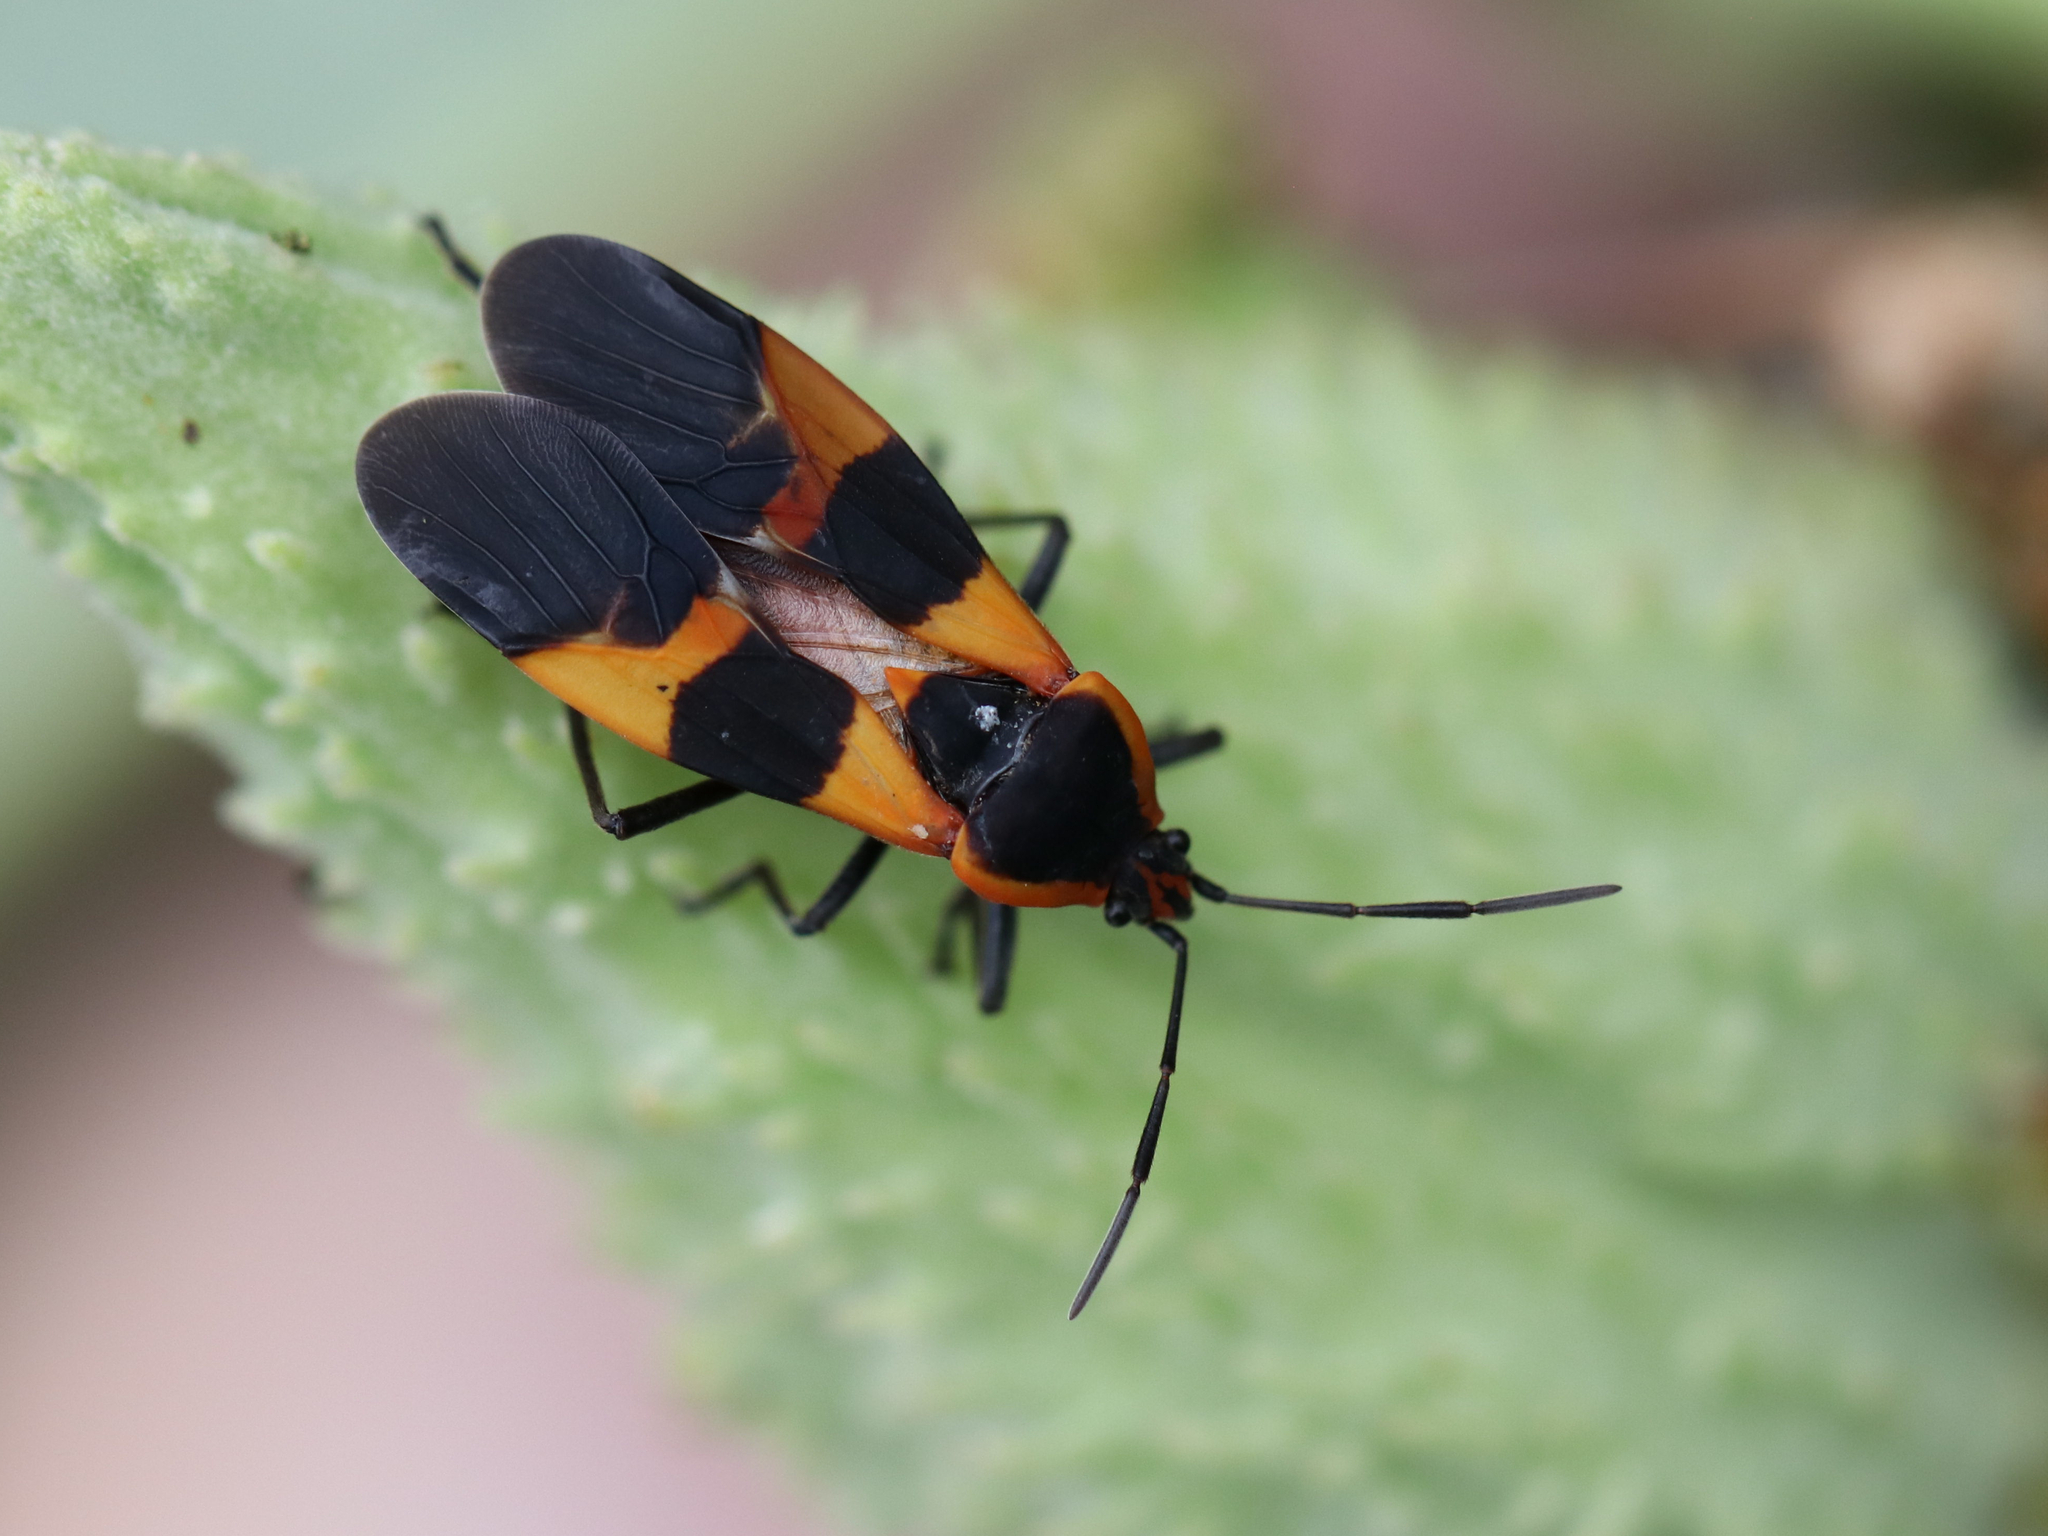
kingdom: Animalia
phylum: Arthropoda
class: Insecta
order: Hemiptera
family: Lygaeidae
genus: Oncopeltus
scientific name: Oncopeltus fasciatus
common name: Large milkweed bug
